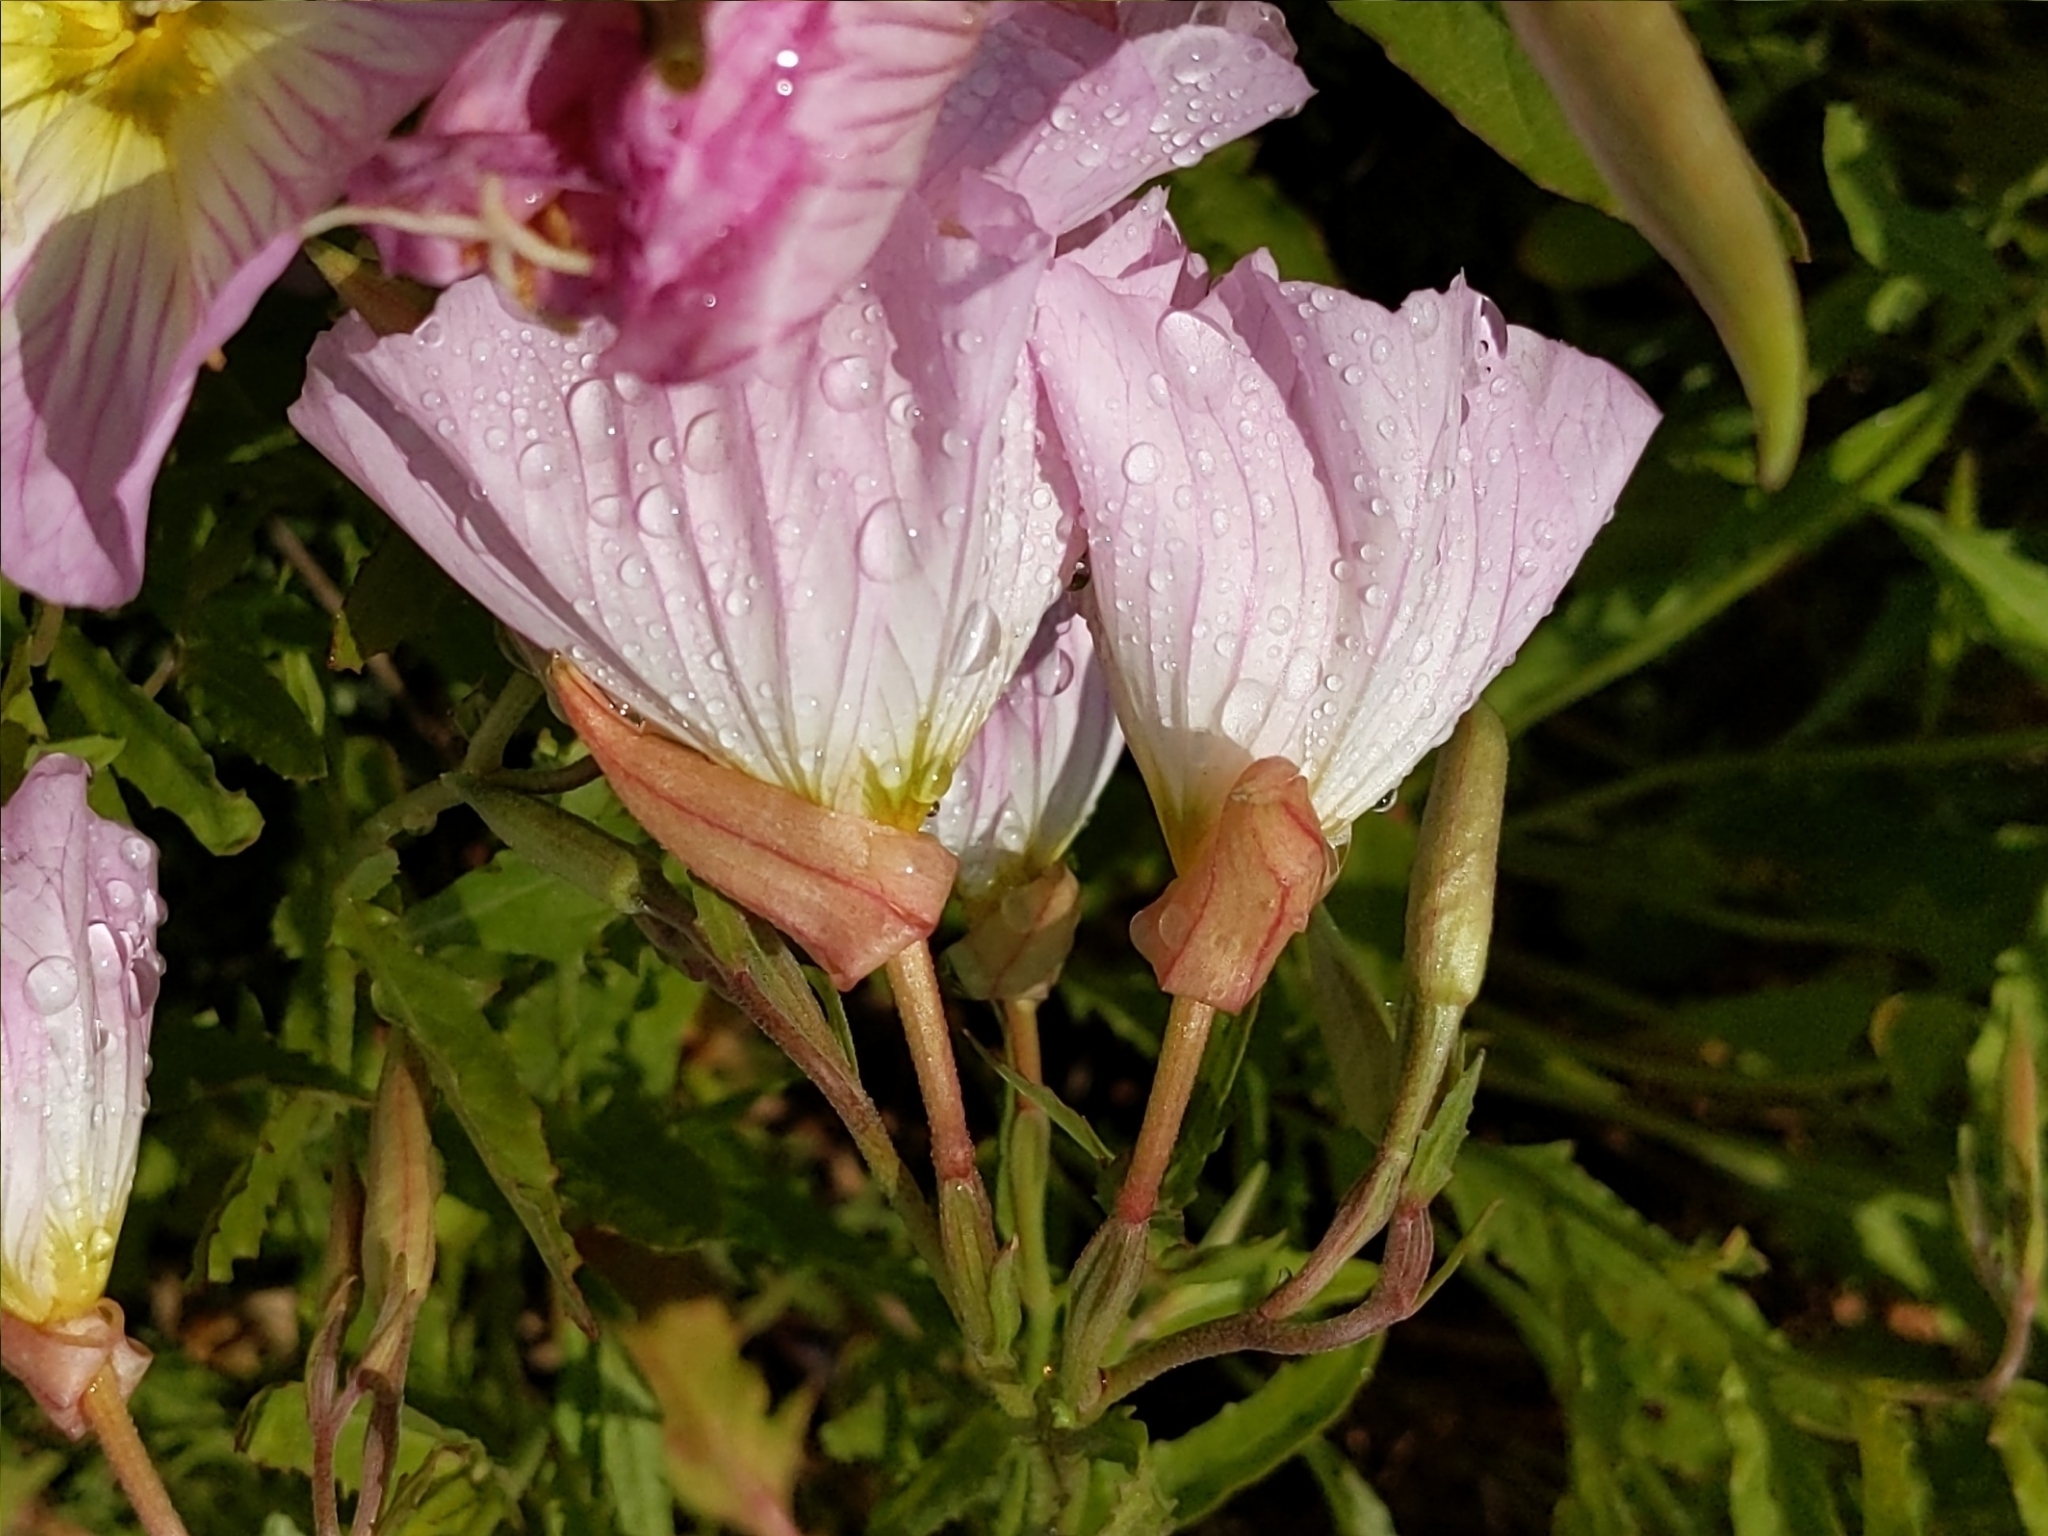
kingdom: Plantae
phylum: Tracheophyta
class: Magnoliopsida
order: Myrtales
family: Onagraceae
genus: Oenothera
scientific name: Oenothera speciosa
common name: White evening-primrose
